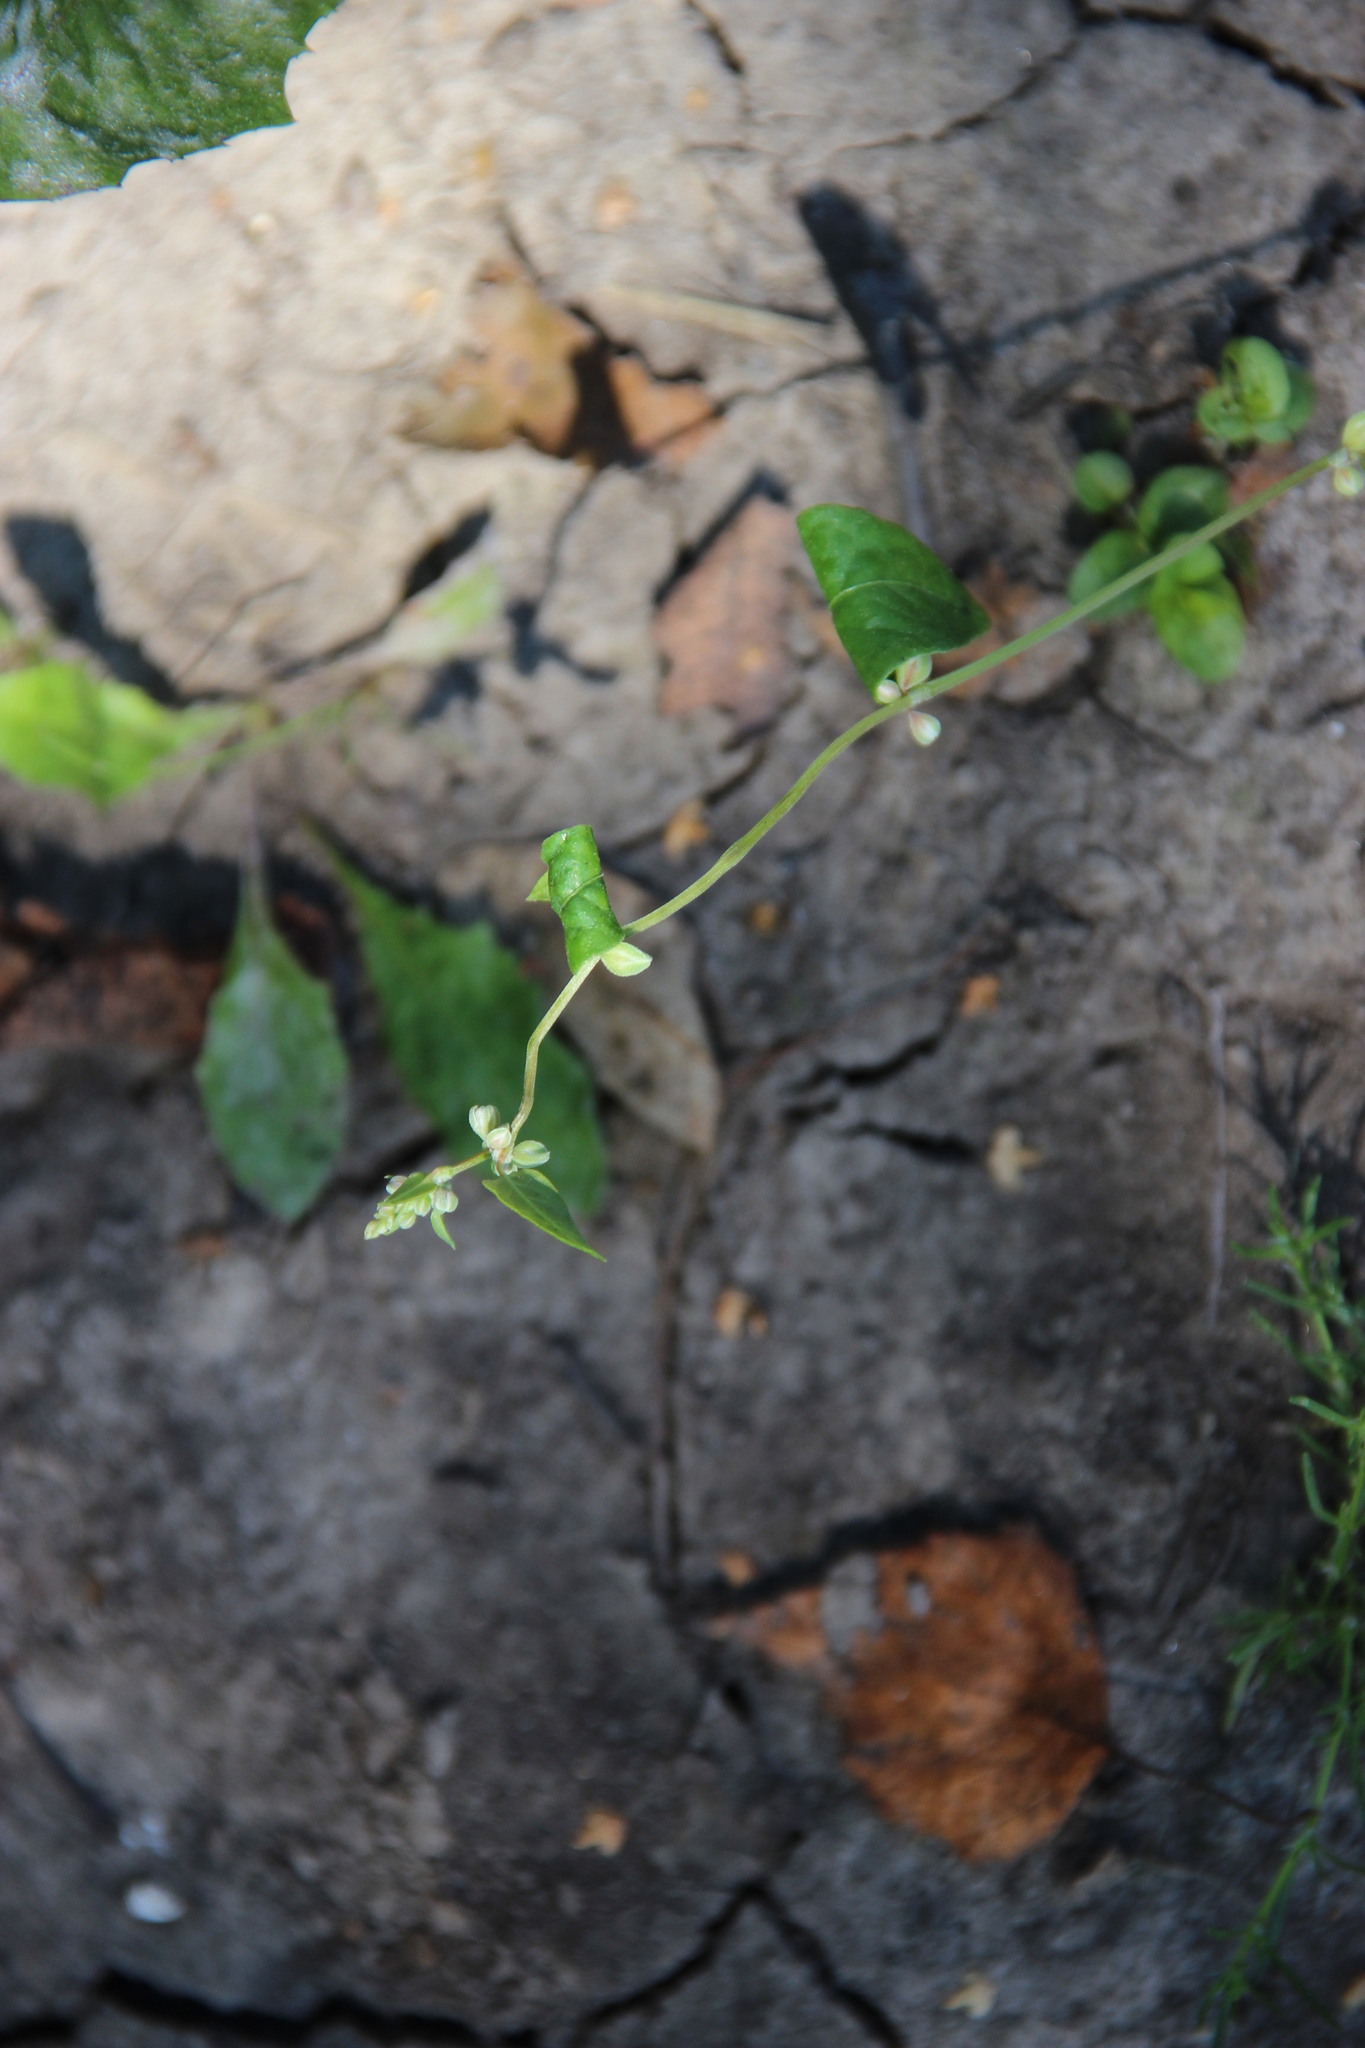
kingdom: Plantae
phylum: Tracheophyta
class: Magnoliopsida
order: Caryophyllales
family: Polygonaceae
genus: Fallopia
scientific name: Fallopia convolvulus
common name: Black bindweed
